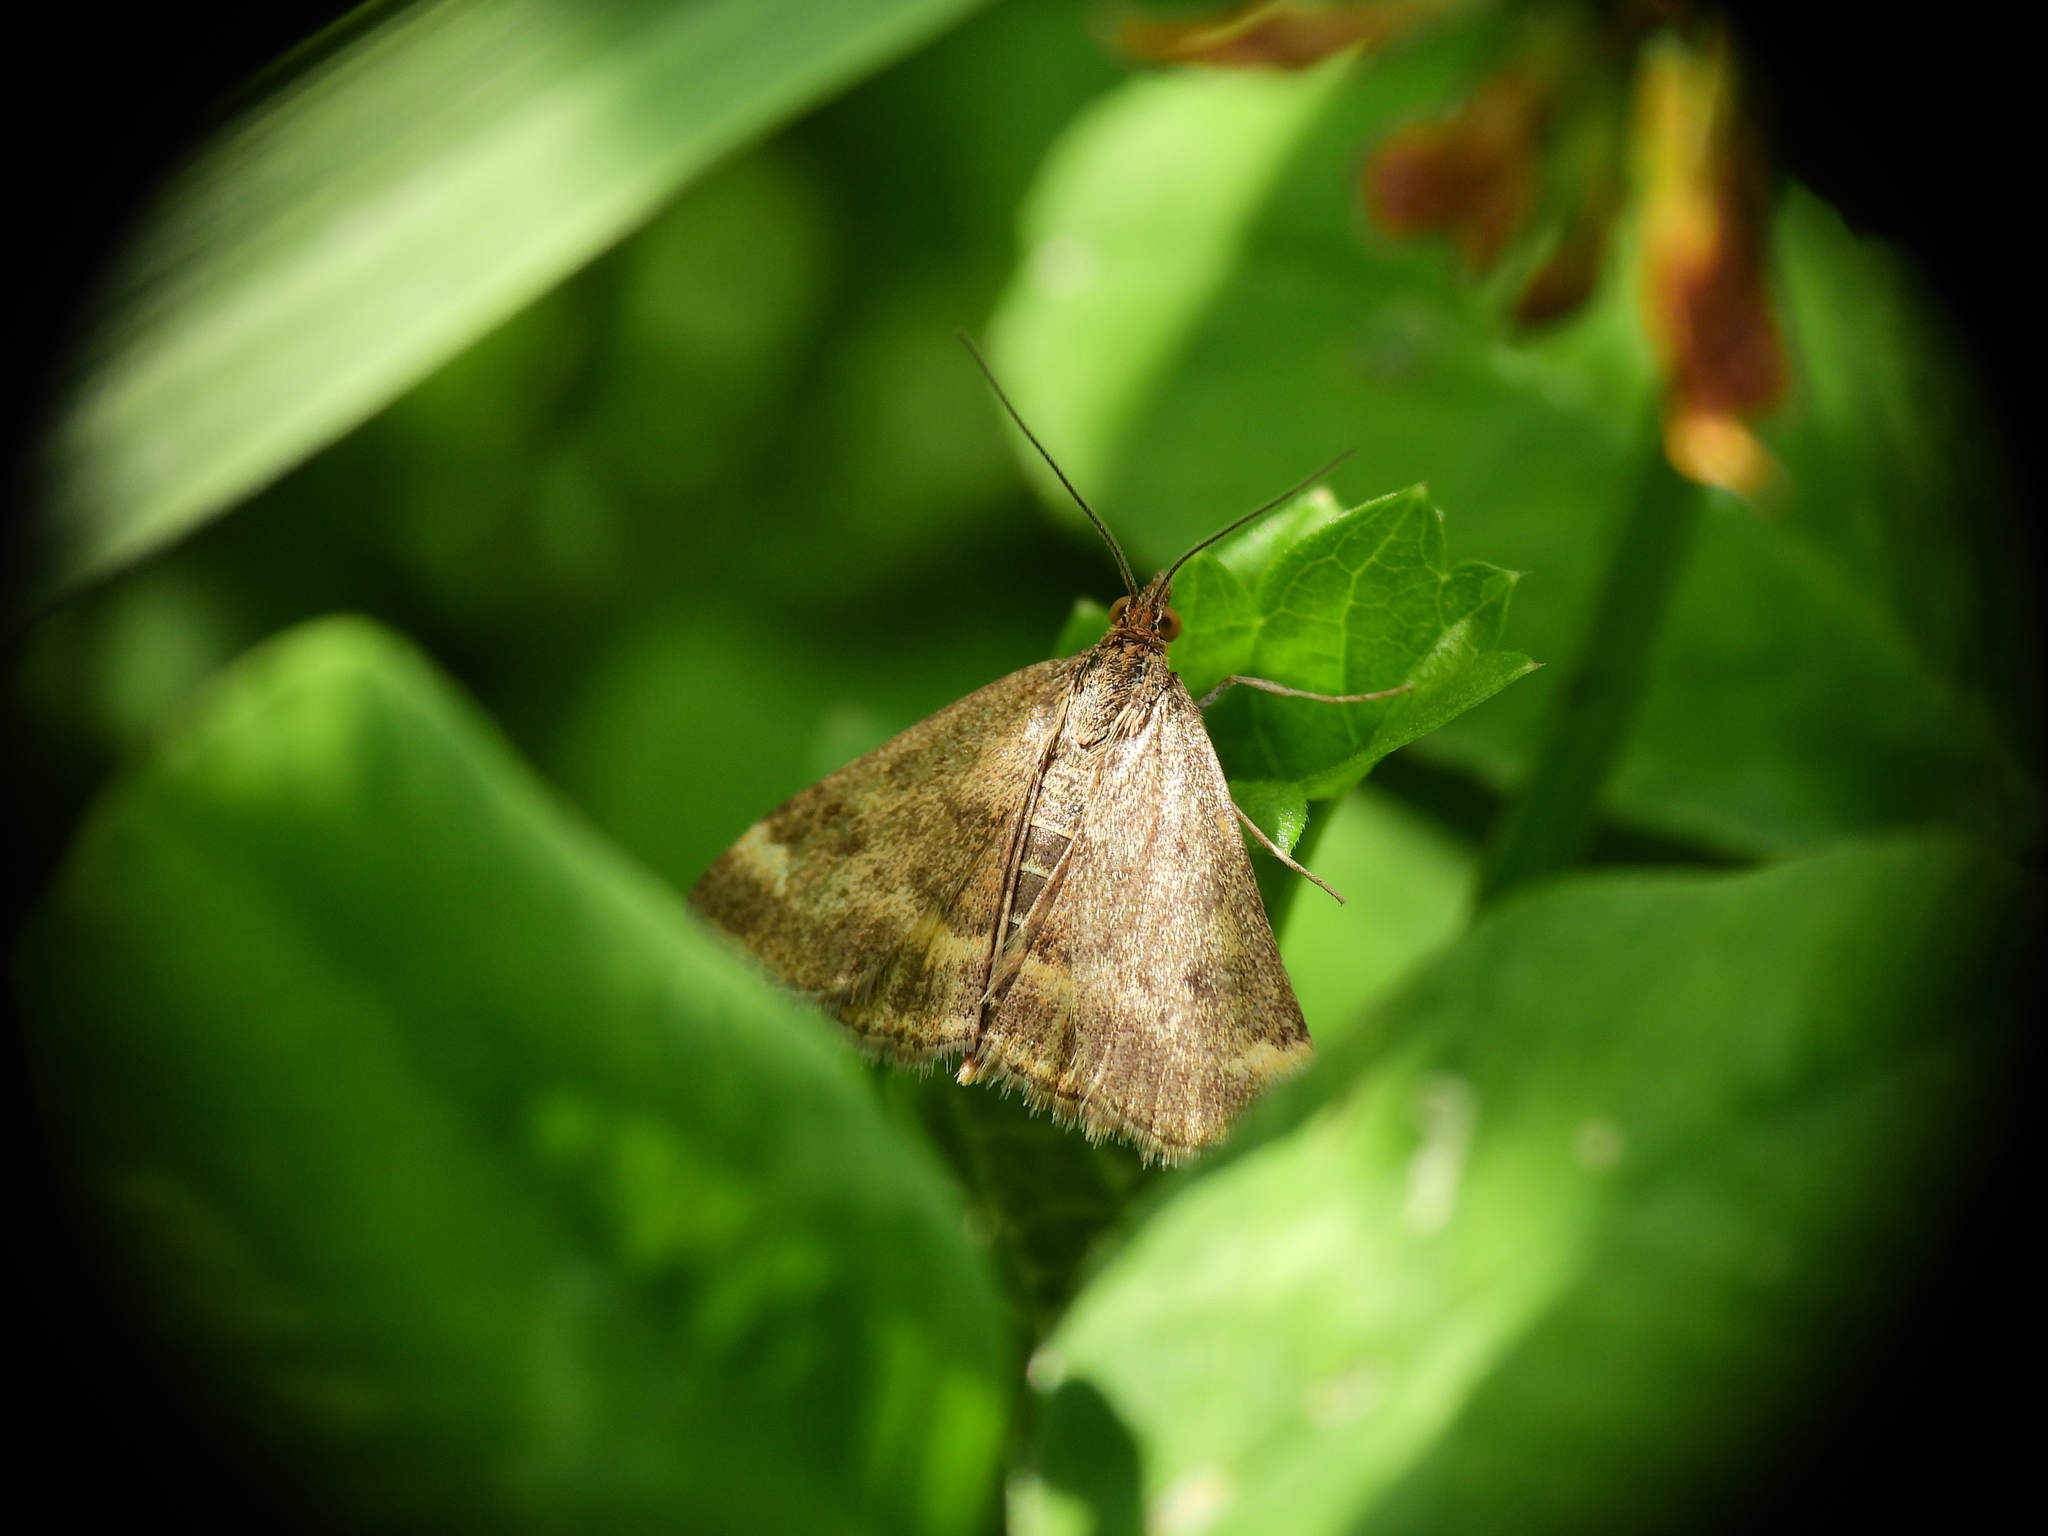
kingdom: Animalia
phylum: Arthropoda
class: Insecta
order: Lepidoptera
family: Crambidae
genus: Pyrausta
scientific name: Pyrausta despicata
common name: Straw-barred pearl
